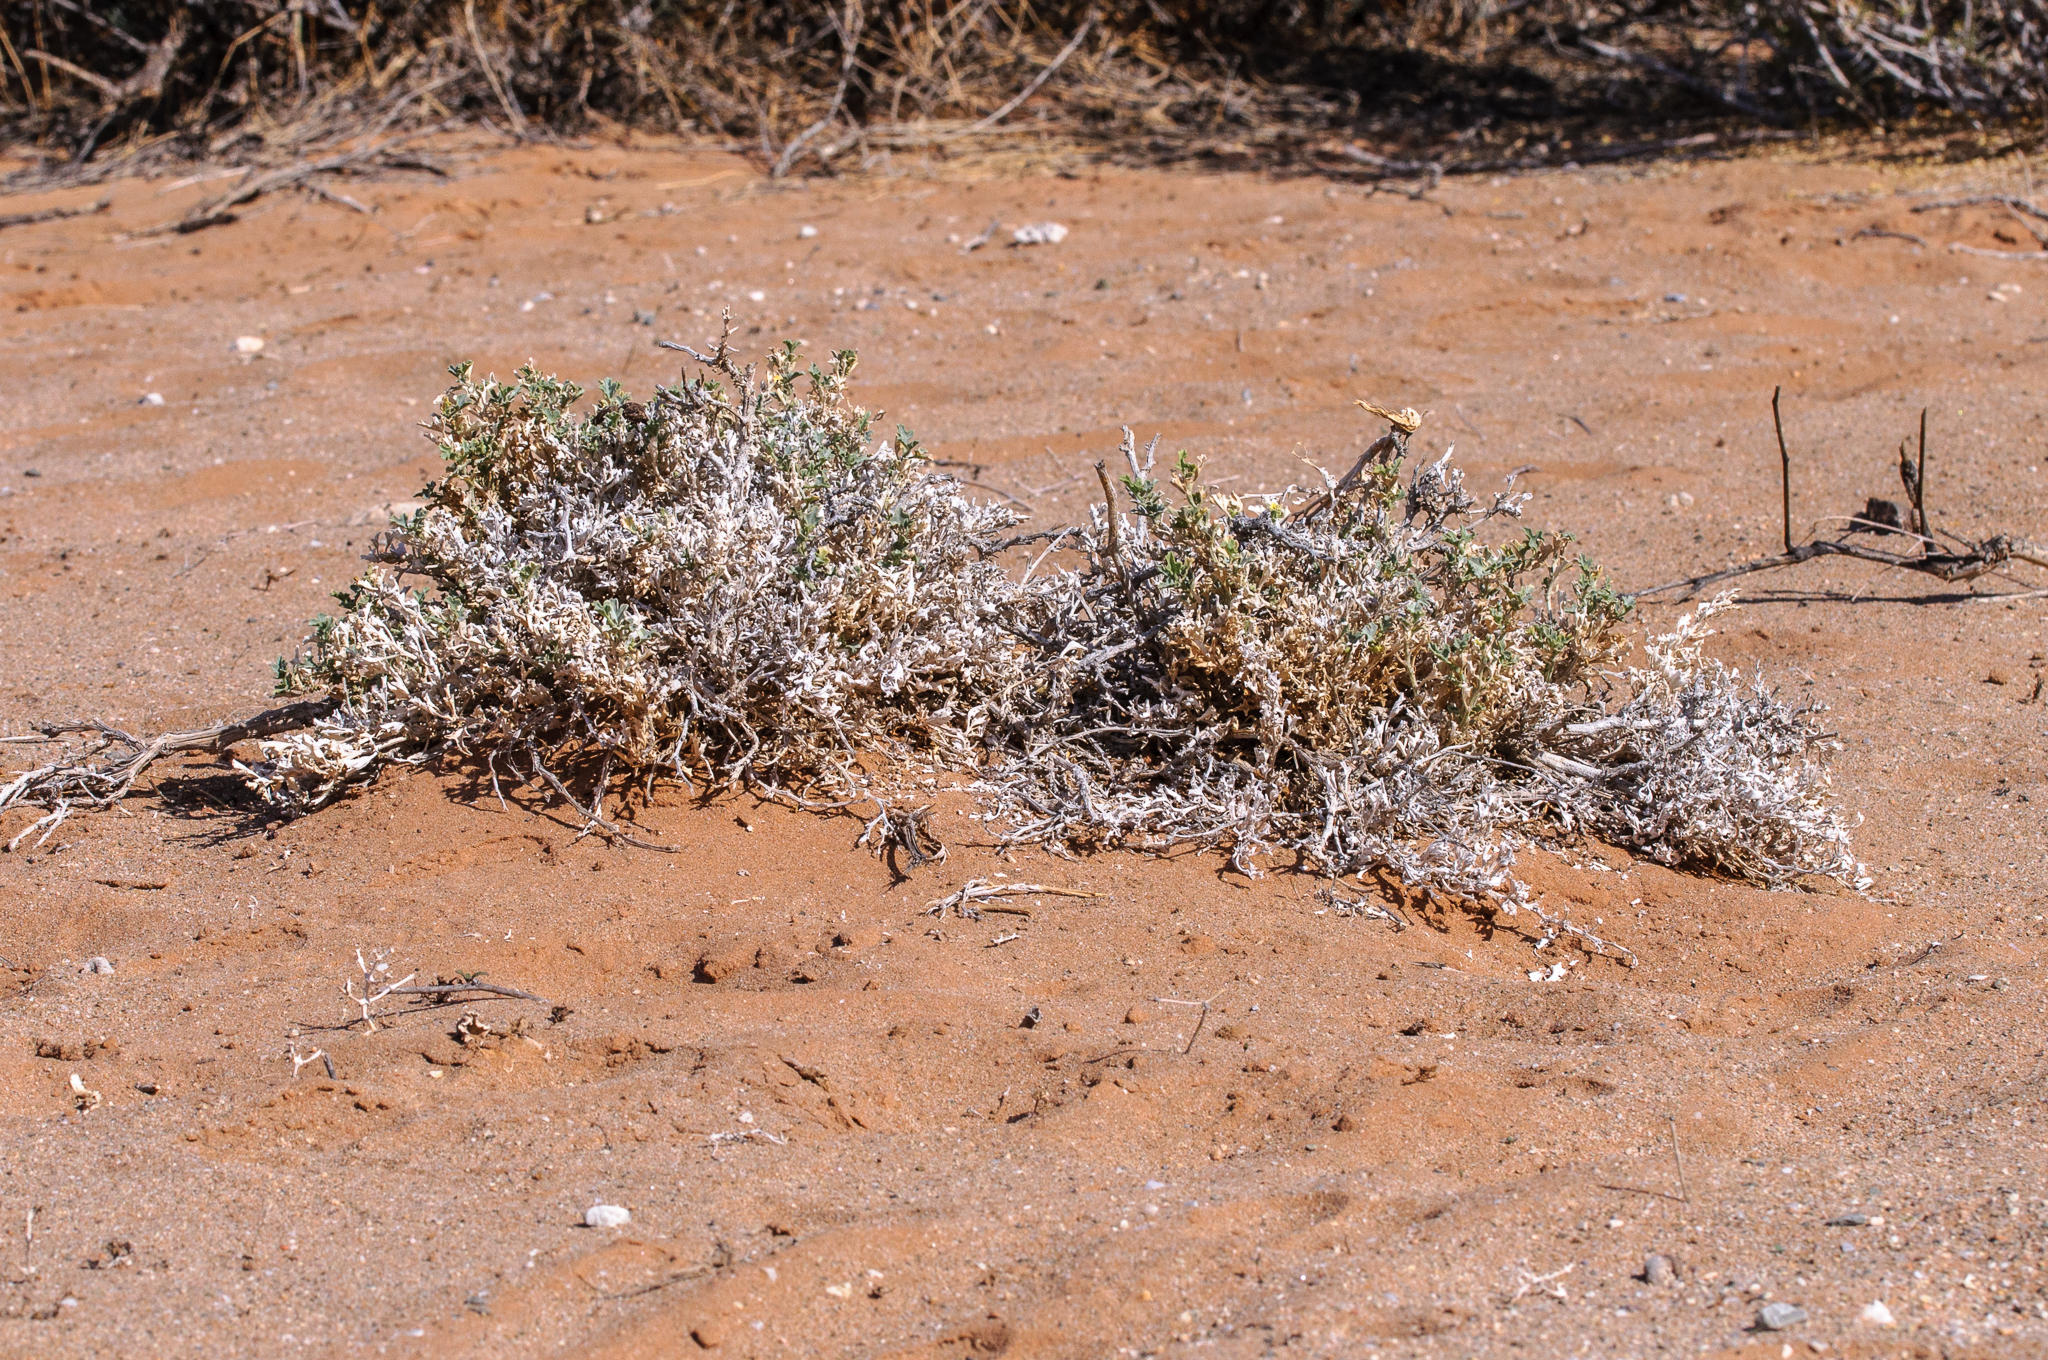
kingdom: Plantae
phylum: Tracheophyta
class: Magnoliopsida
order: Cucurbitales
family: Cucurbitaceae
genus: Cucumis
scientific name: Cucumis rigidus
